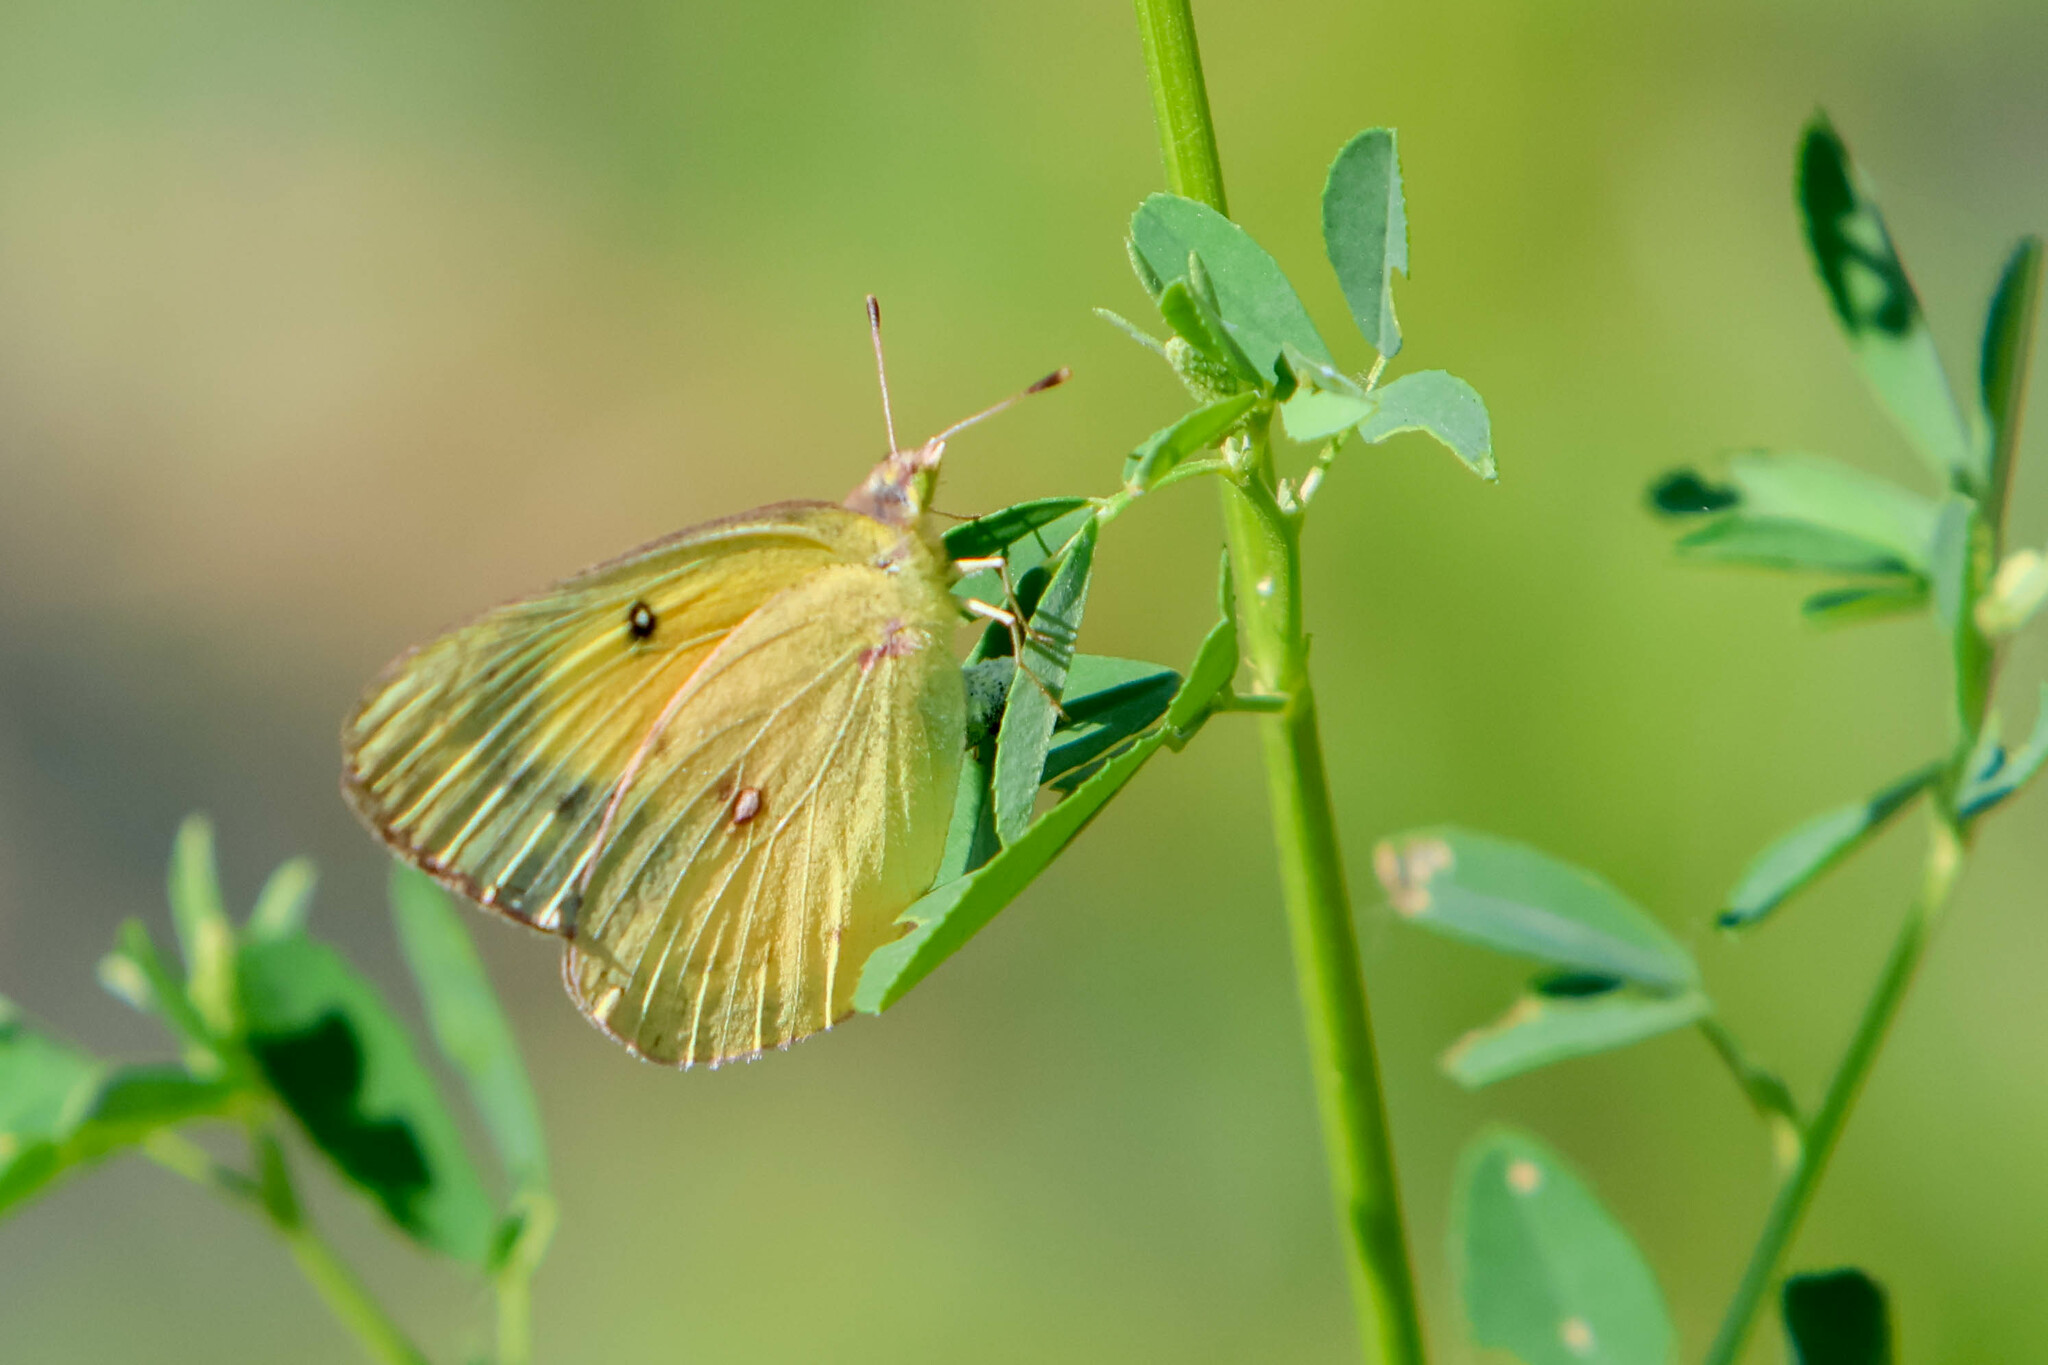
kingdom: Animalia
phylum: Arthropoda
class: Insecta
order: Lepidoptera
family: Pieridae
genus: Colias
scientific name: Colias eurytheme
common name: Alfalfa butterfly
